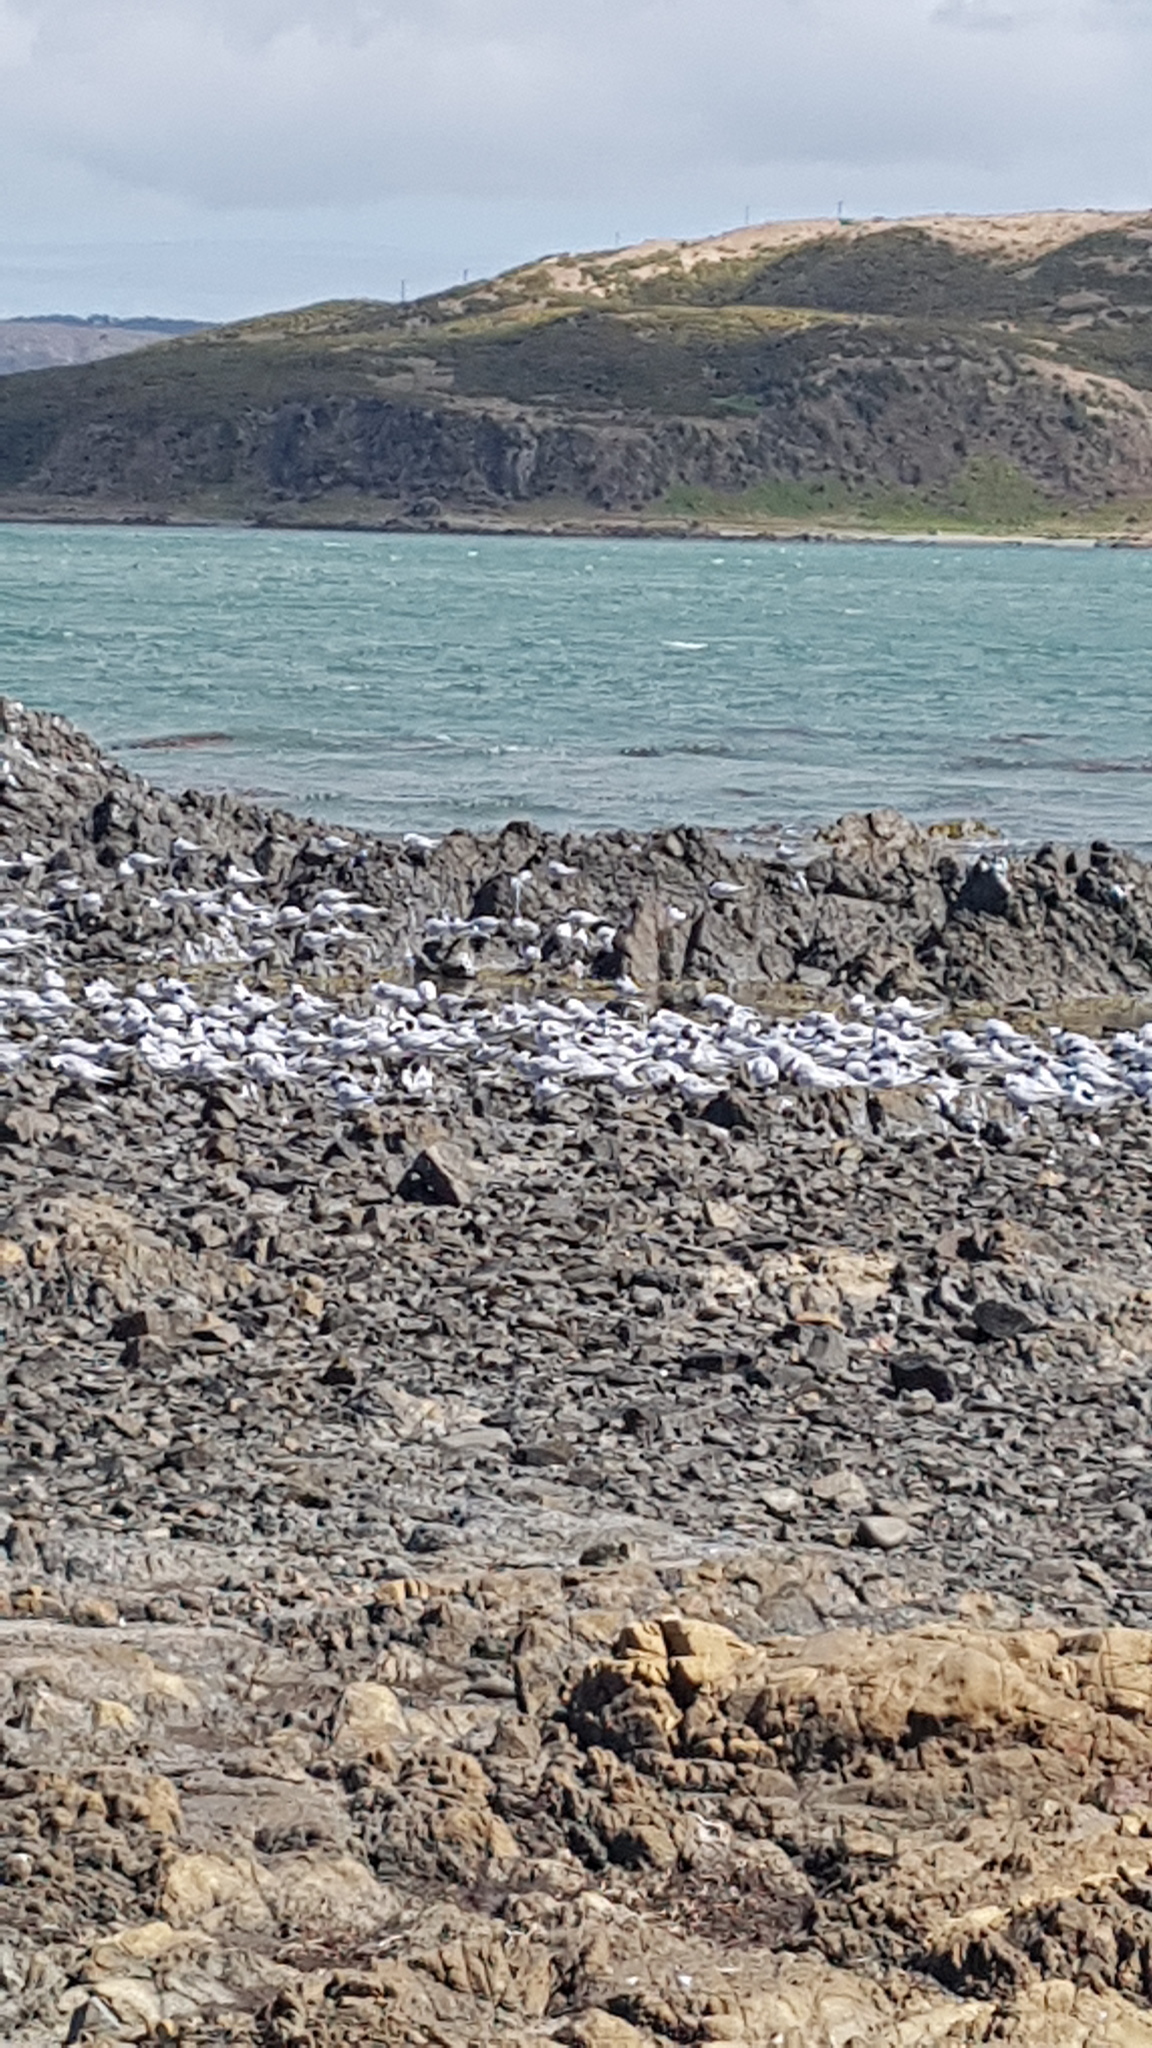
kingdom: Animalia
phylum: Chordata
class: Aves
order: Charadriiformes
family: Laridae
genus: Sterna
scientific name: Sterna striata
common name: White-fronted tern
